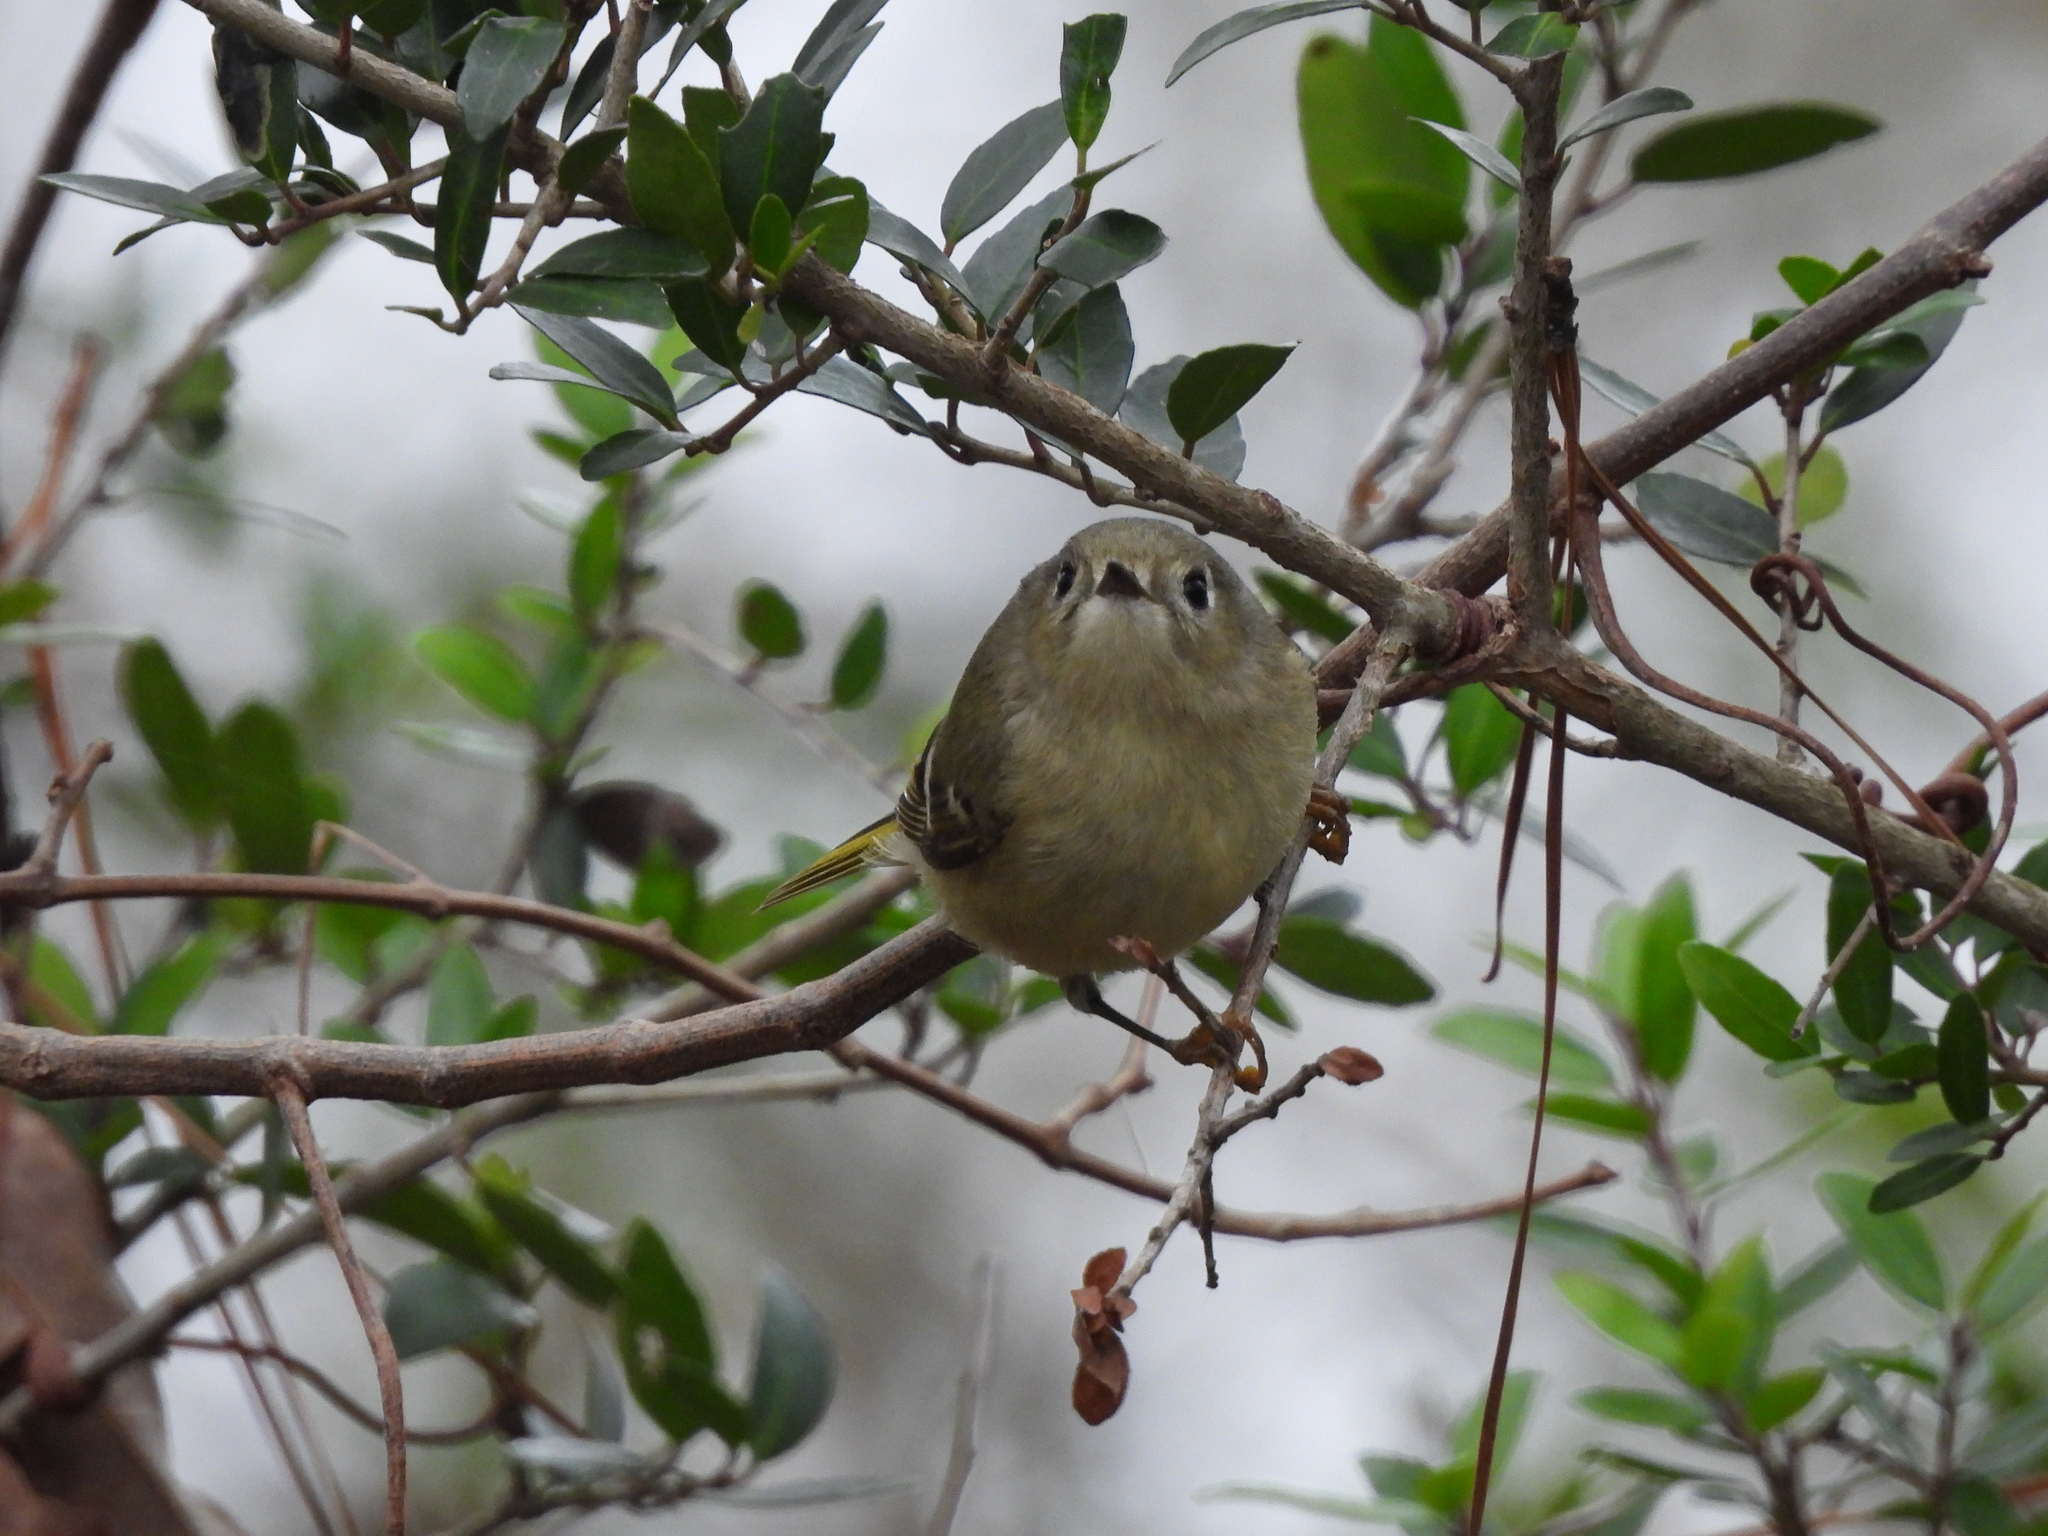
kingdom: Animalia
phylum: Chordata
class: Aves
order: Passeriformes
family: Regulidae
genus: Regulus
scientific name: Regulus calendula
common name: Ruby-crowned kinglet
